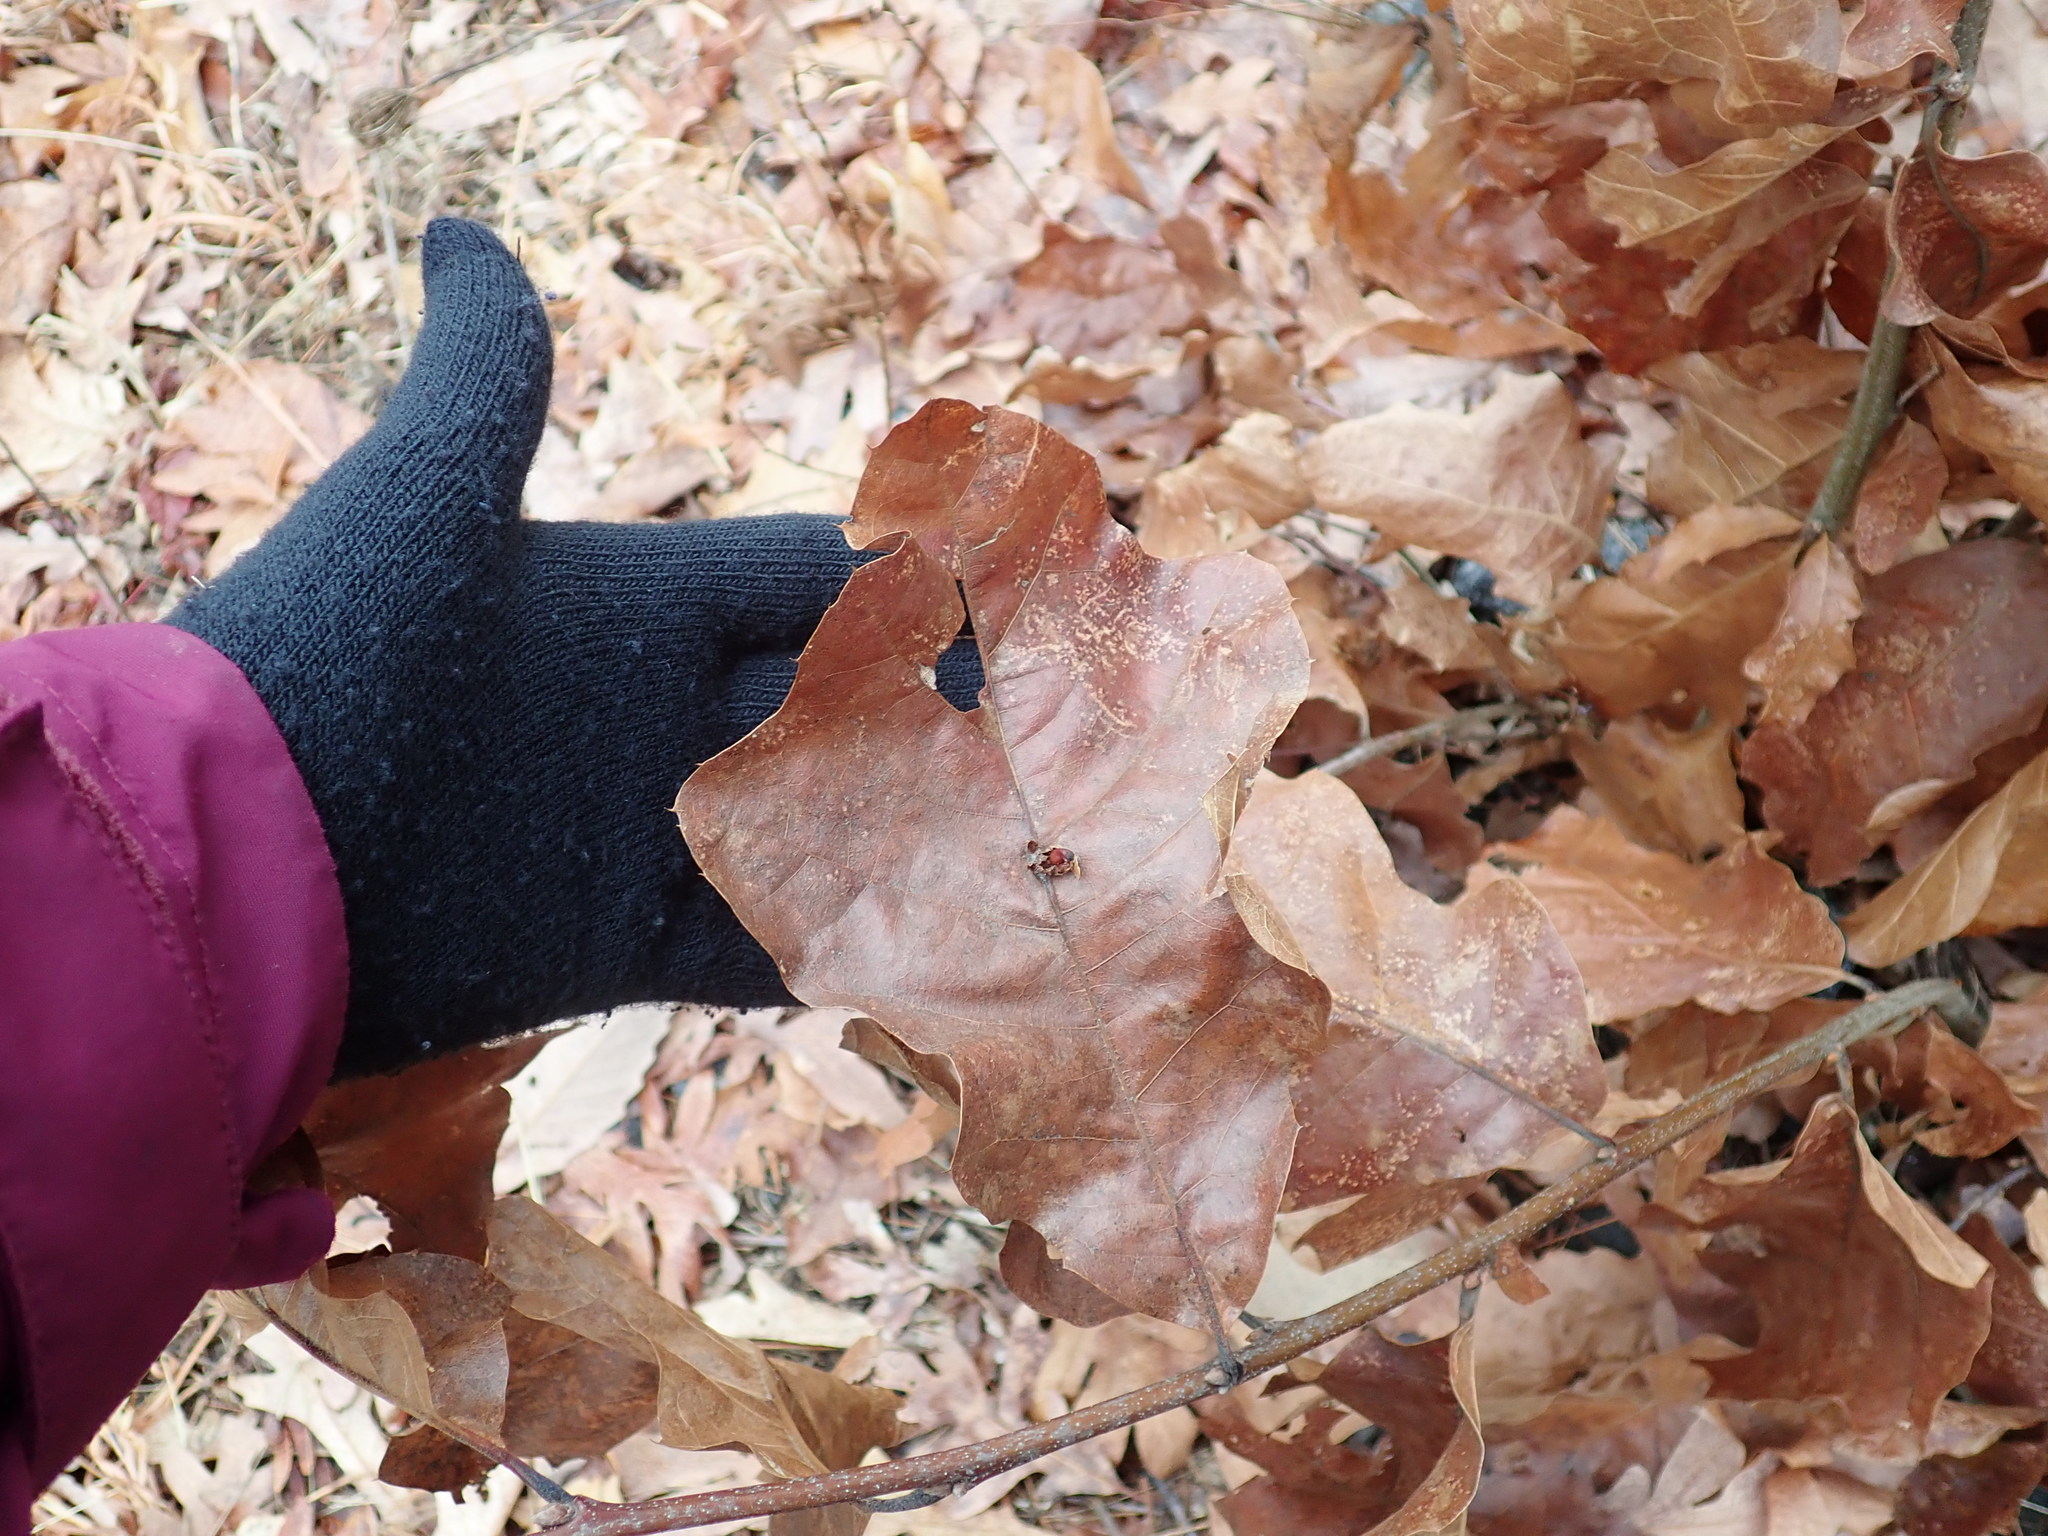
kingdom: Plantae
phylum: Tracheophyta
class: Magnoliopsida
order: Fagales
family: Fagaceae
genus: Quercus
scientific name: Quercus velutina
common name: Black oak
